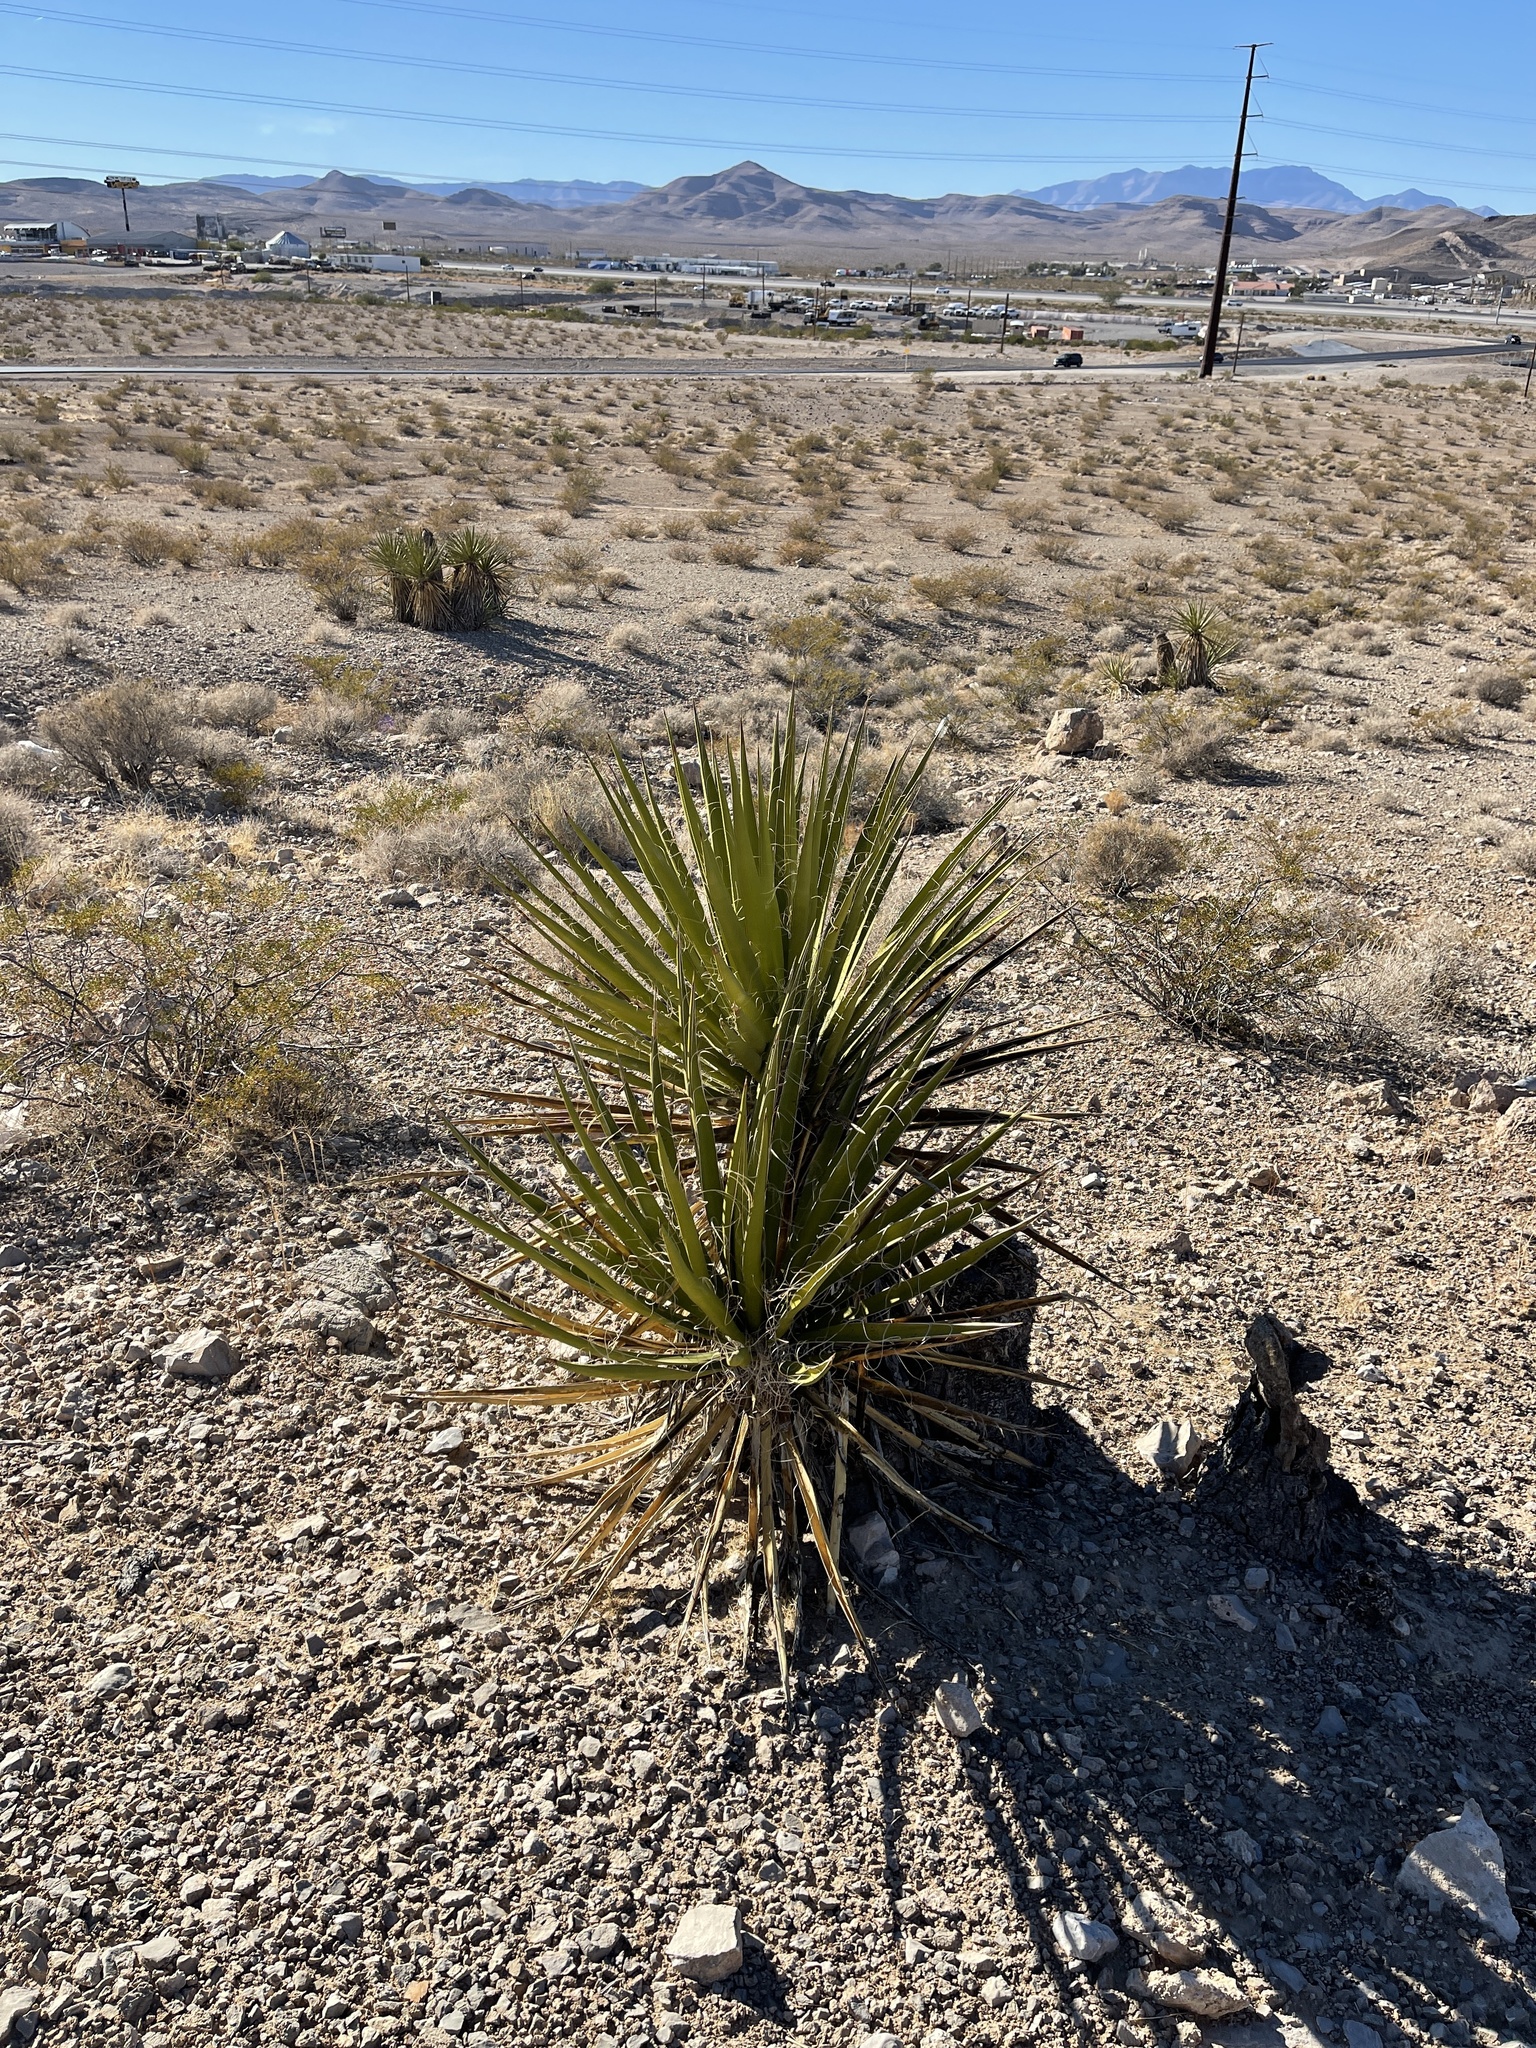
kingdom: Plantae
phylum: Tracheophyta
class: Liliopsida
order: Asparagales
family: Asparagaceae
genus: Yucca
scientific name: Yucca schidigera
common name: Mojave yucca
